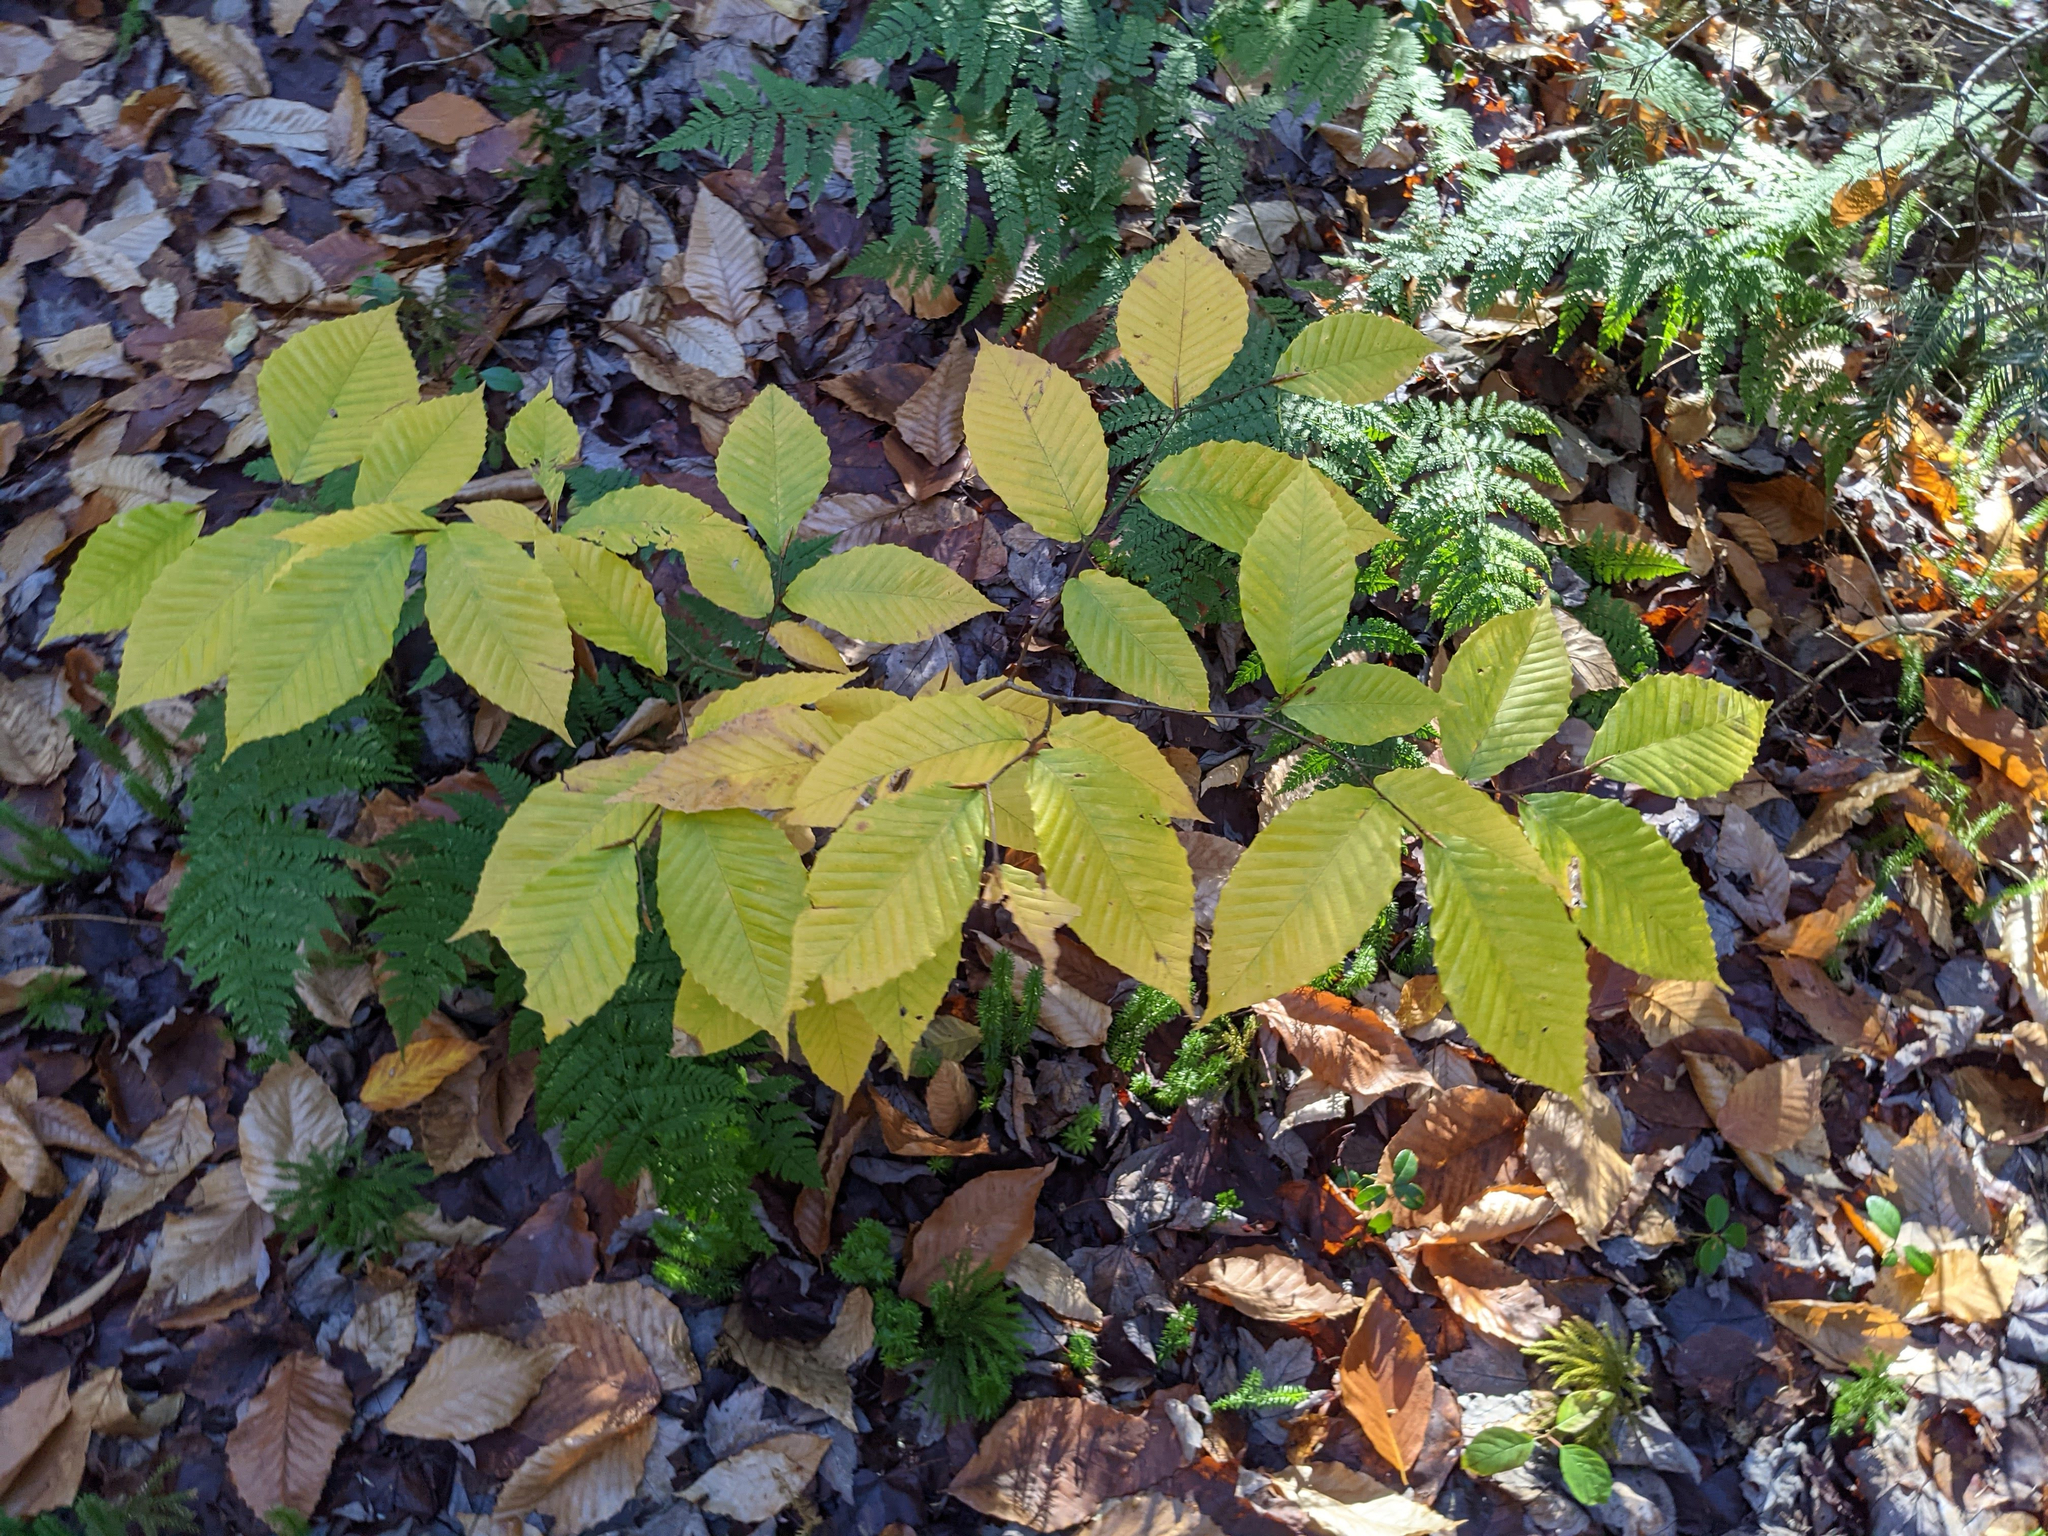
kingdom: Plantae
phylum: Tracheophyta
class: Magnoliopsida
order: Fagales
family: Fagaceae
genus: Fagus
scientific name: Fagus grandifolia
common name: American beech
